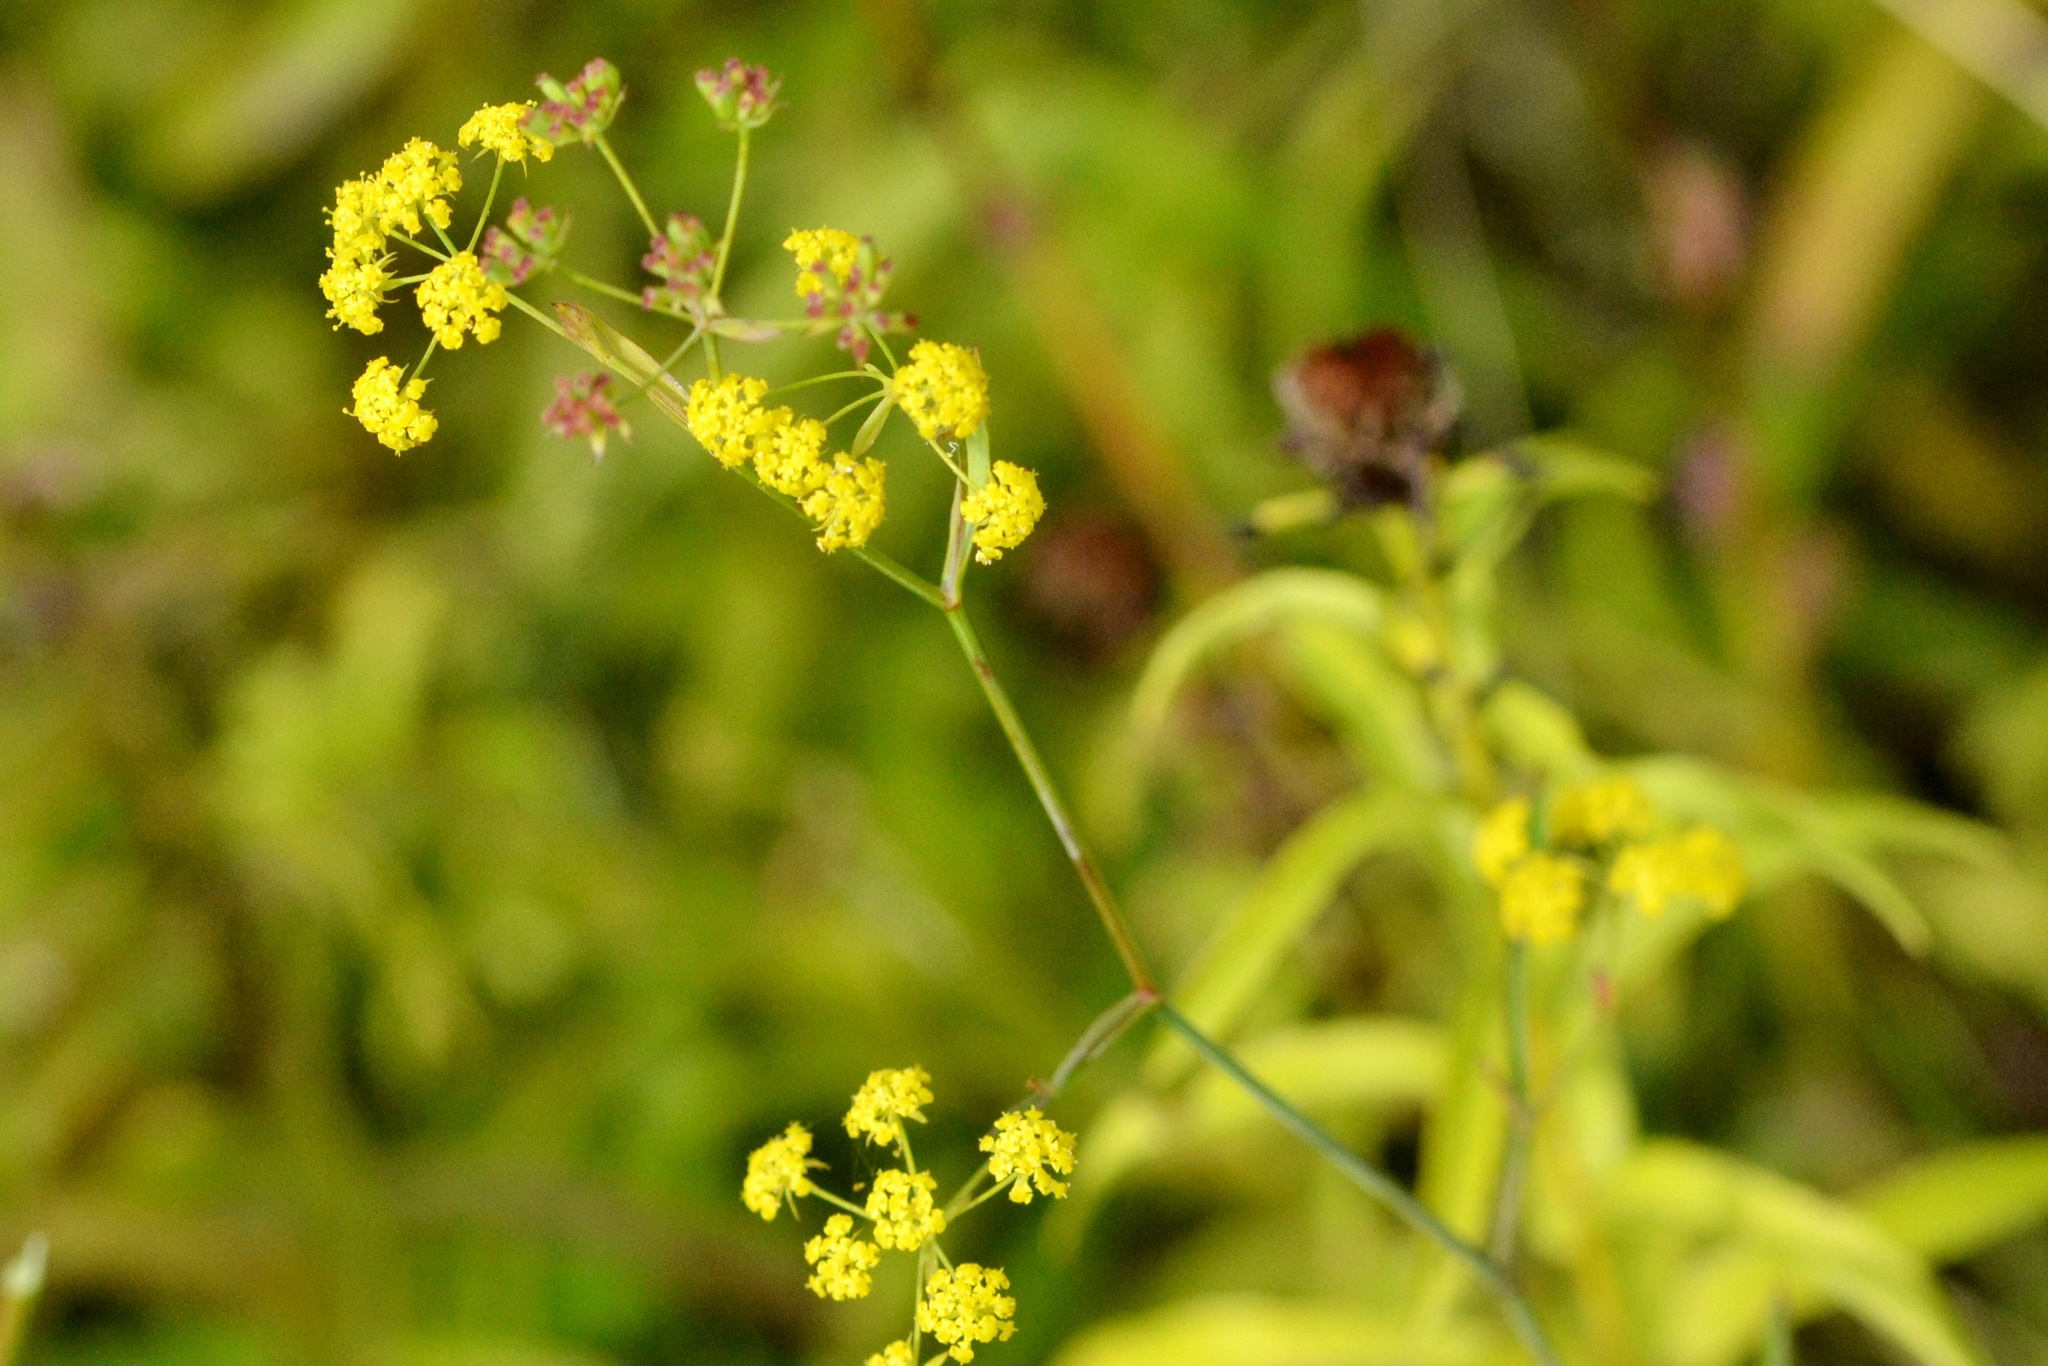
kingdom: Plantae
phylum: Tracheophyta
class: Magnoliopsida
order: Apiales
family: Apiaceae
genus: Bupleurum
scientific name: Bupleurum falcatum
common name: Sickle-leaved hare's-ear
